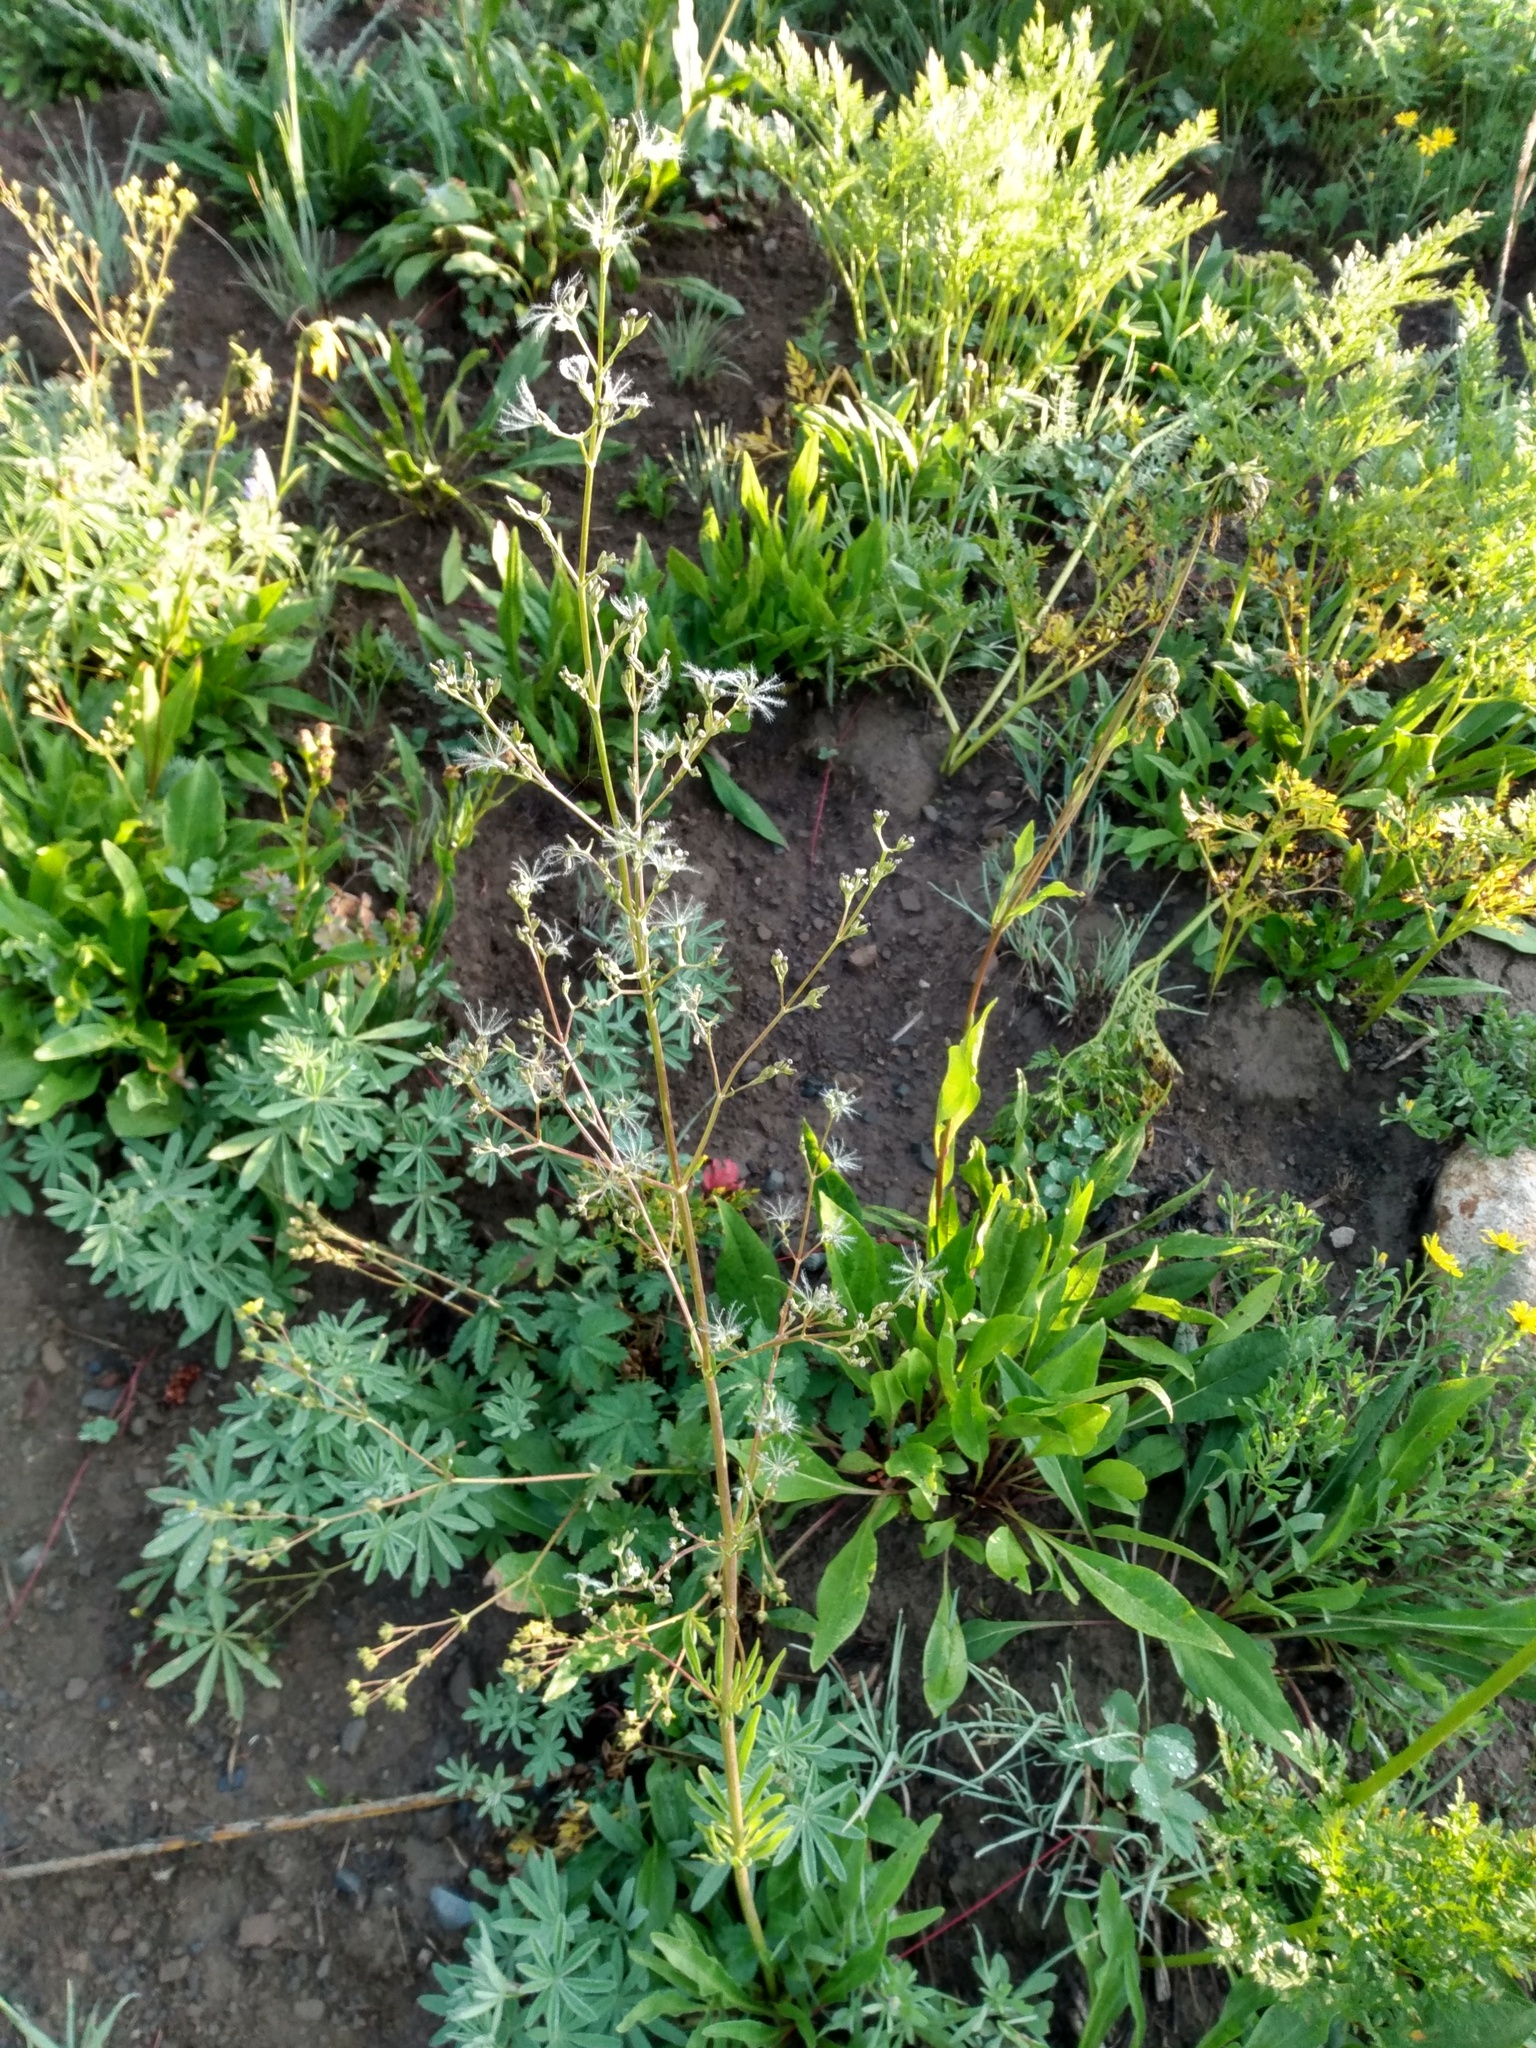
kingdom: Plantae
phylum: Tracheophyta
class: Magnoliopsida
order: Dipsacales
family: Caprifoliaceae
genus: Valeriana
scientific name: Valeriana edulis
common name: Taproot valerian
